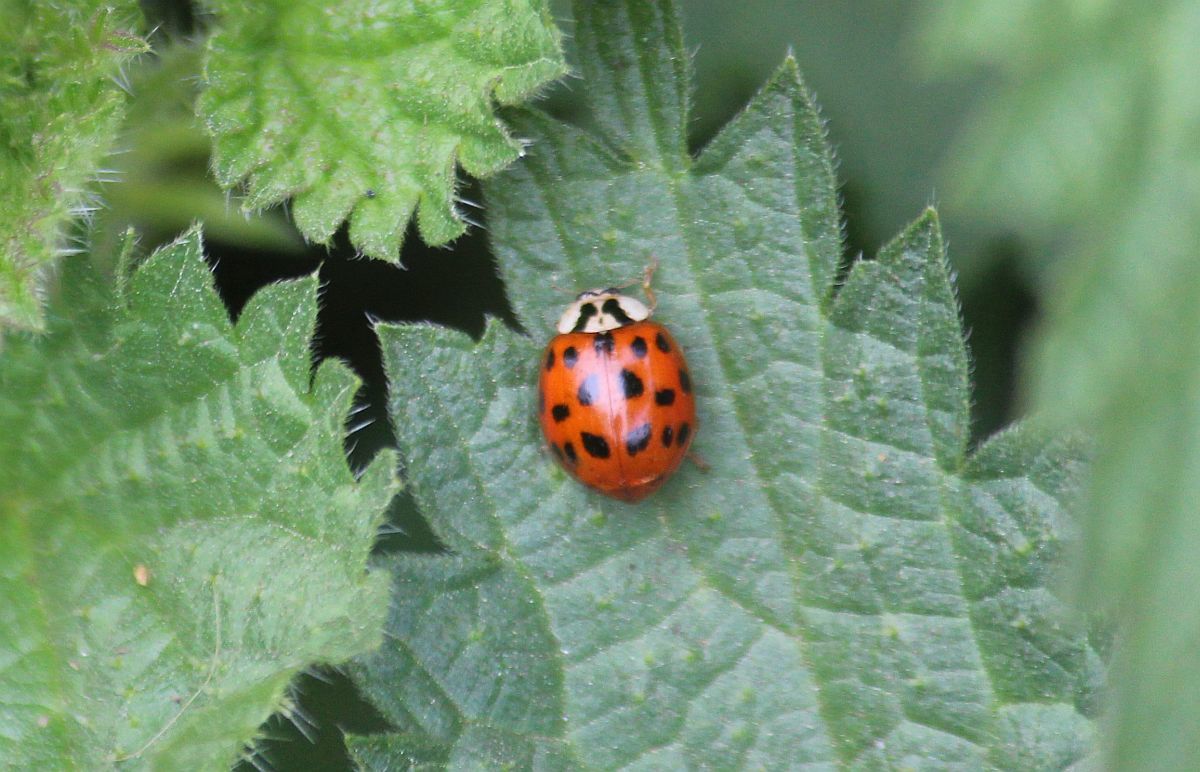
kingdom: Animalia
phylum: Arthropoda
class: Insecta
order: Coleoptera
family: Coccinellidae
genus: Harmonia
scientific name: Harmonia axyridis
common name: Harlequin ladybird
